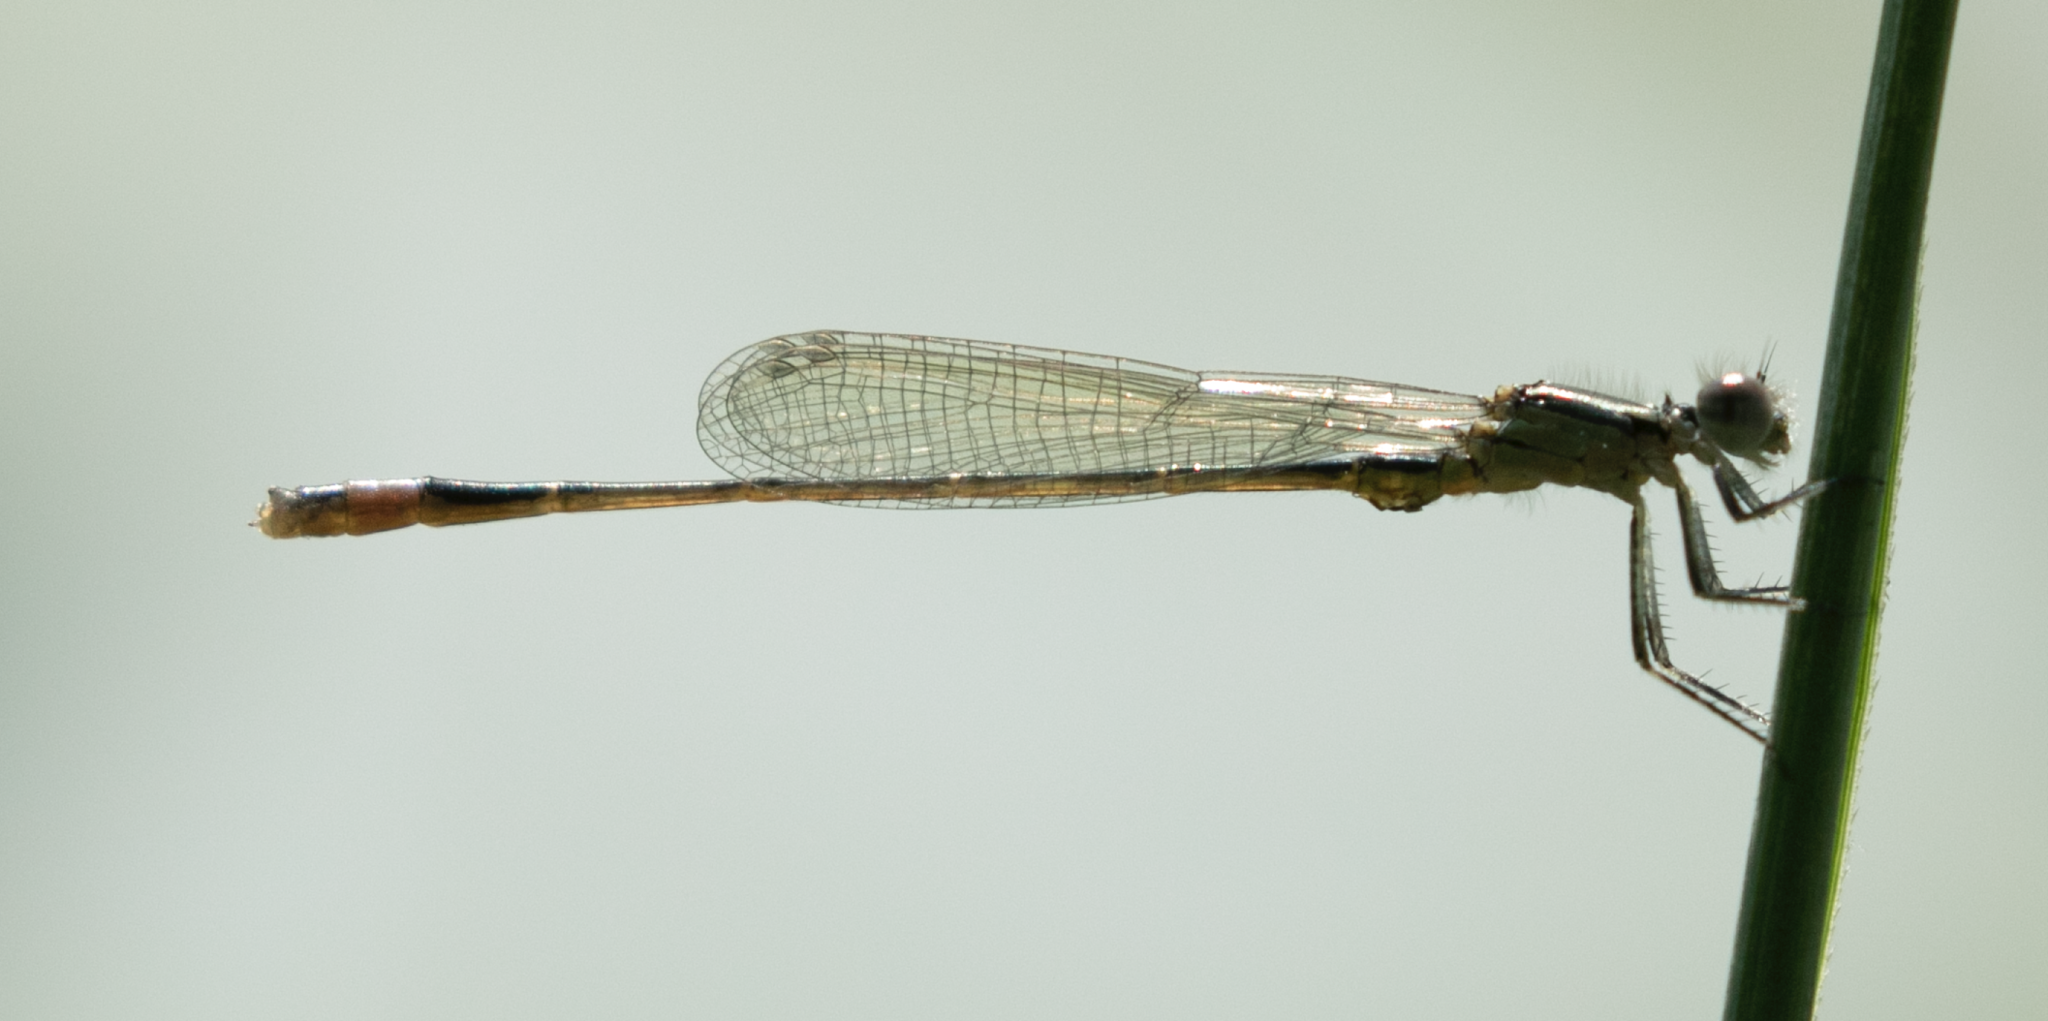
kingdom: Animalia
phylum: Arthropoda
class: Insecta
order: Odonata
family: Coenagrionidae
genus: Ischnura
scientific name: Ischnura elegans
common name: Blue-tailed damselfly
